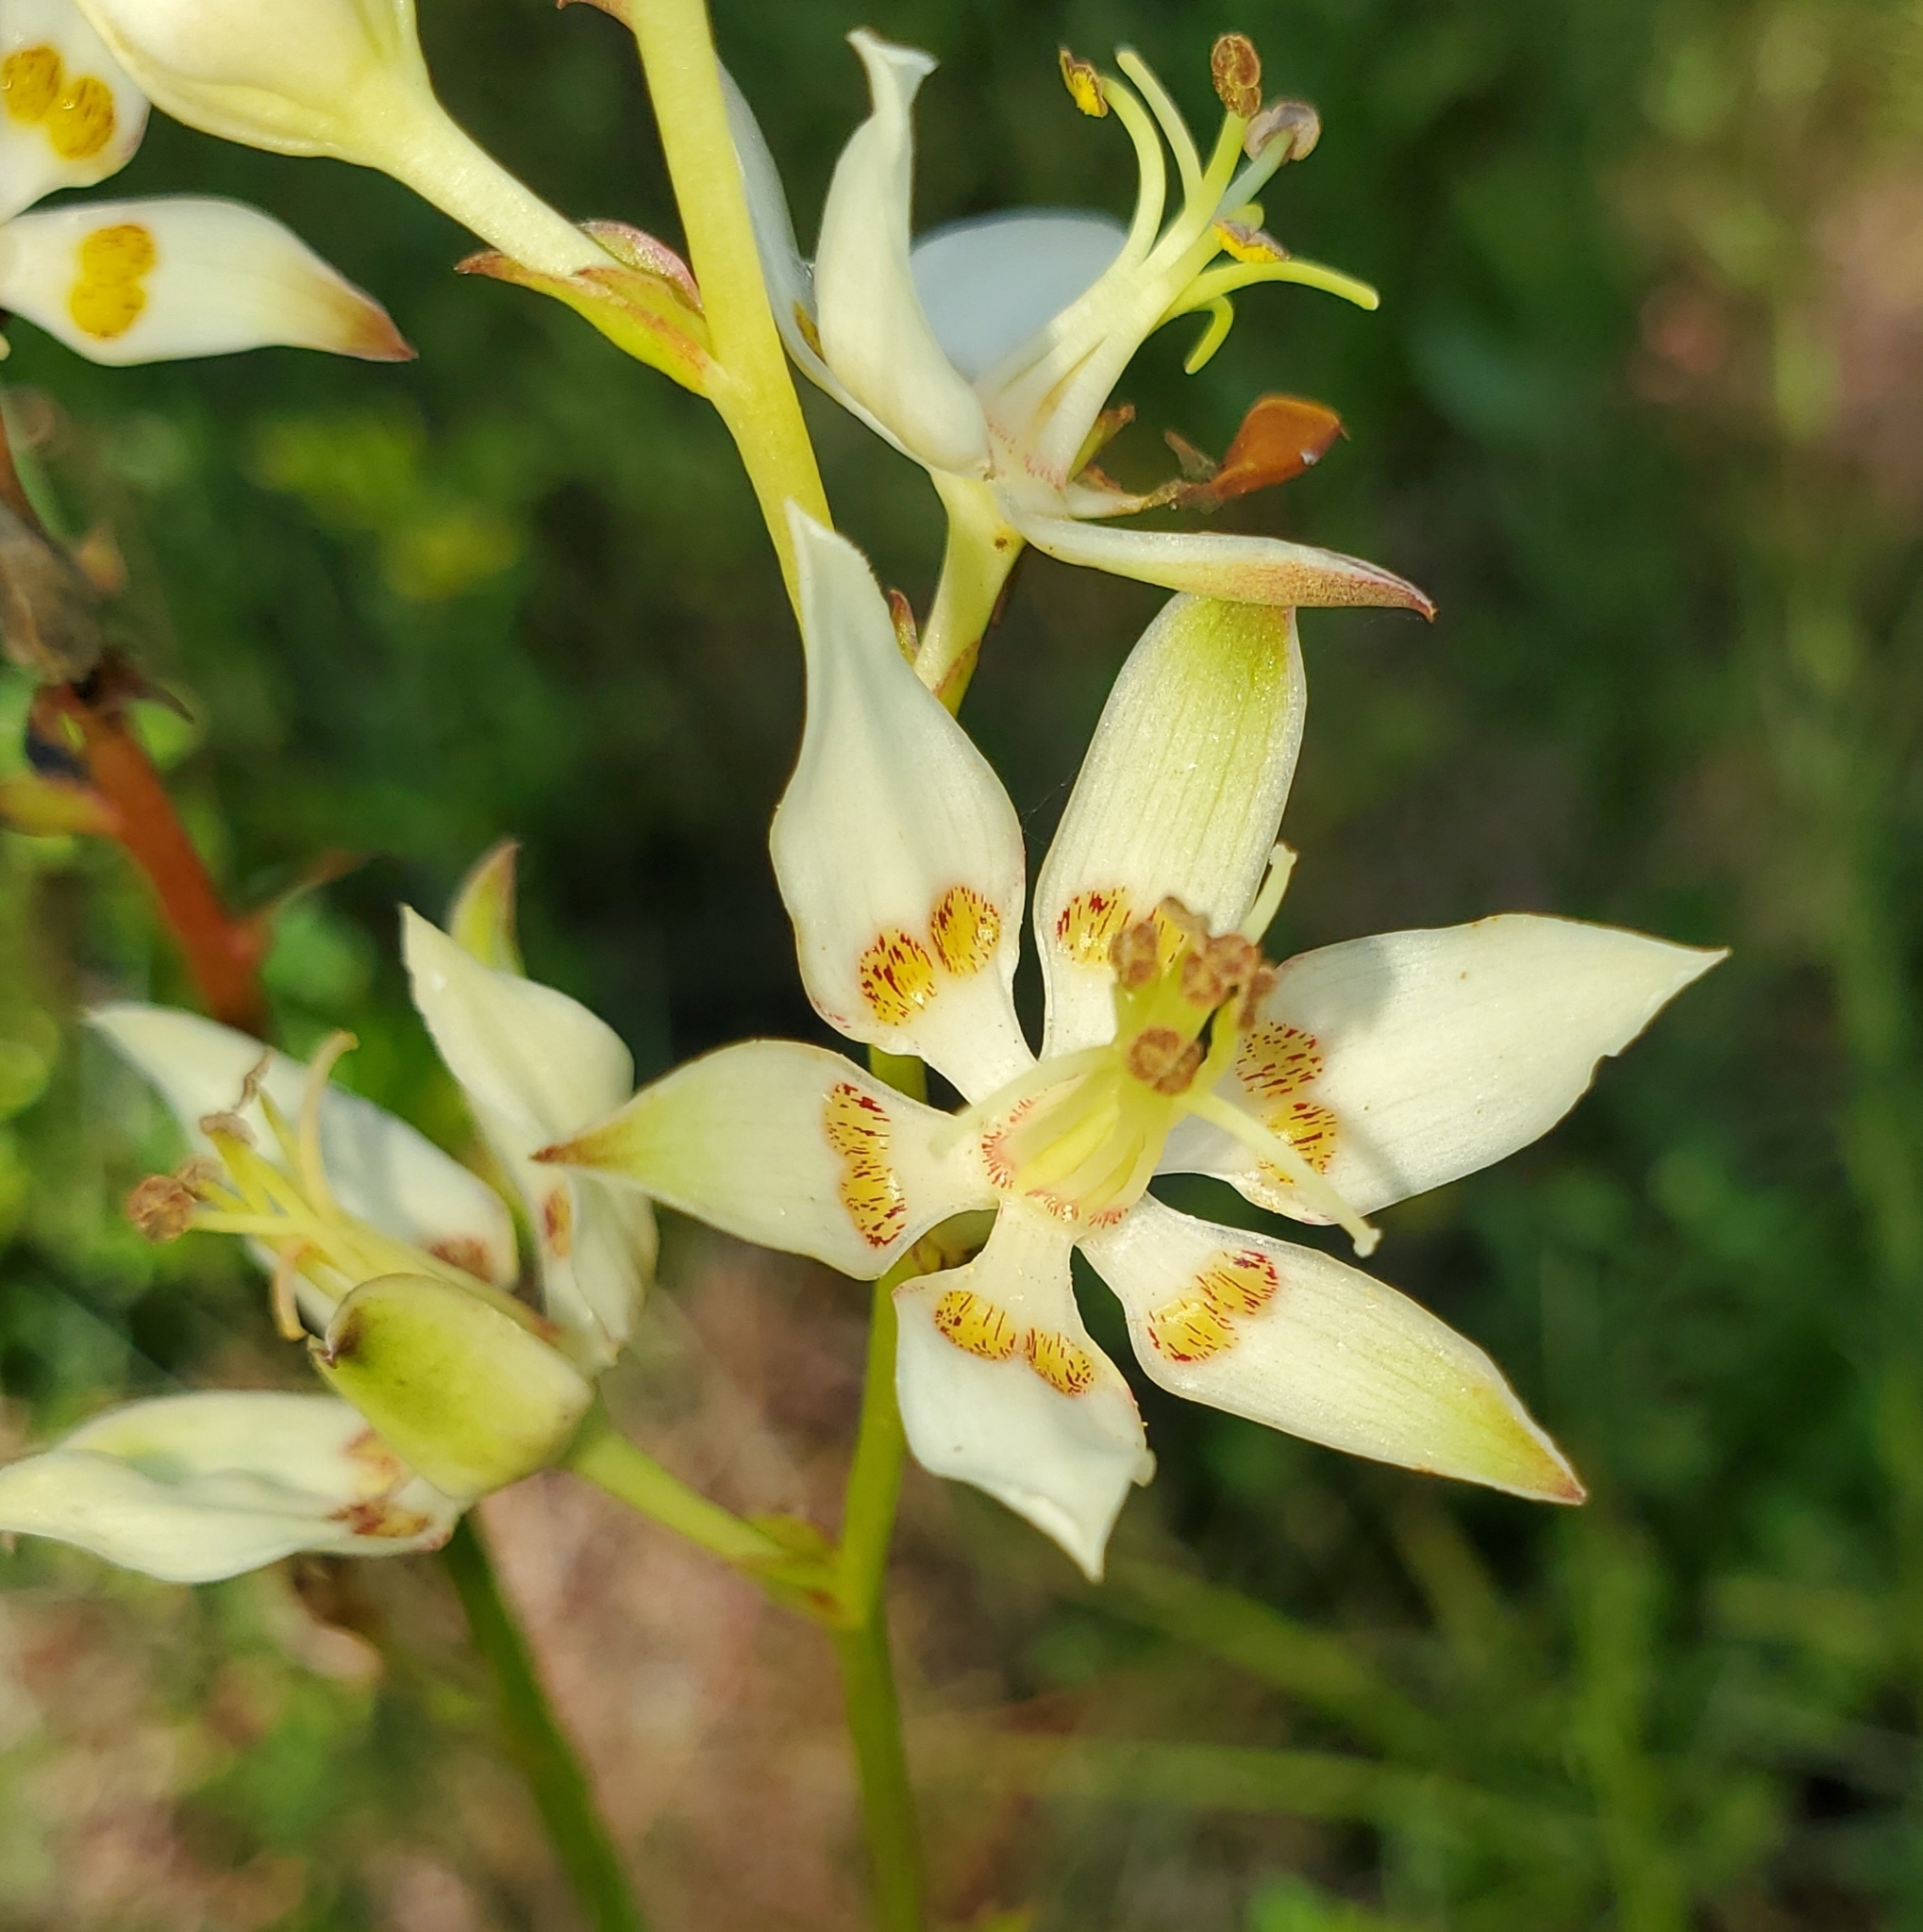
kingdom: Plantae
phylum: Tracheophyta
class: Liliopsida
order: Liliales
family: Melanthiaceae
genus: Zigadenus
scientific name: Zigadenus glaberrimus
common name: Sandbog death camas
